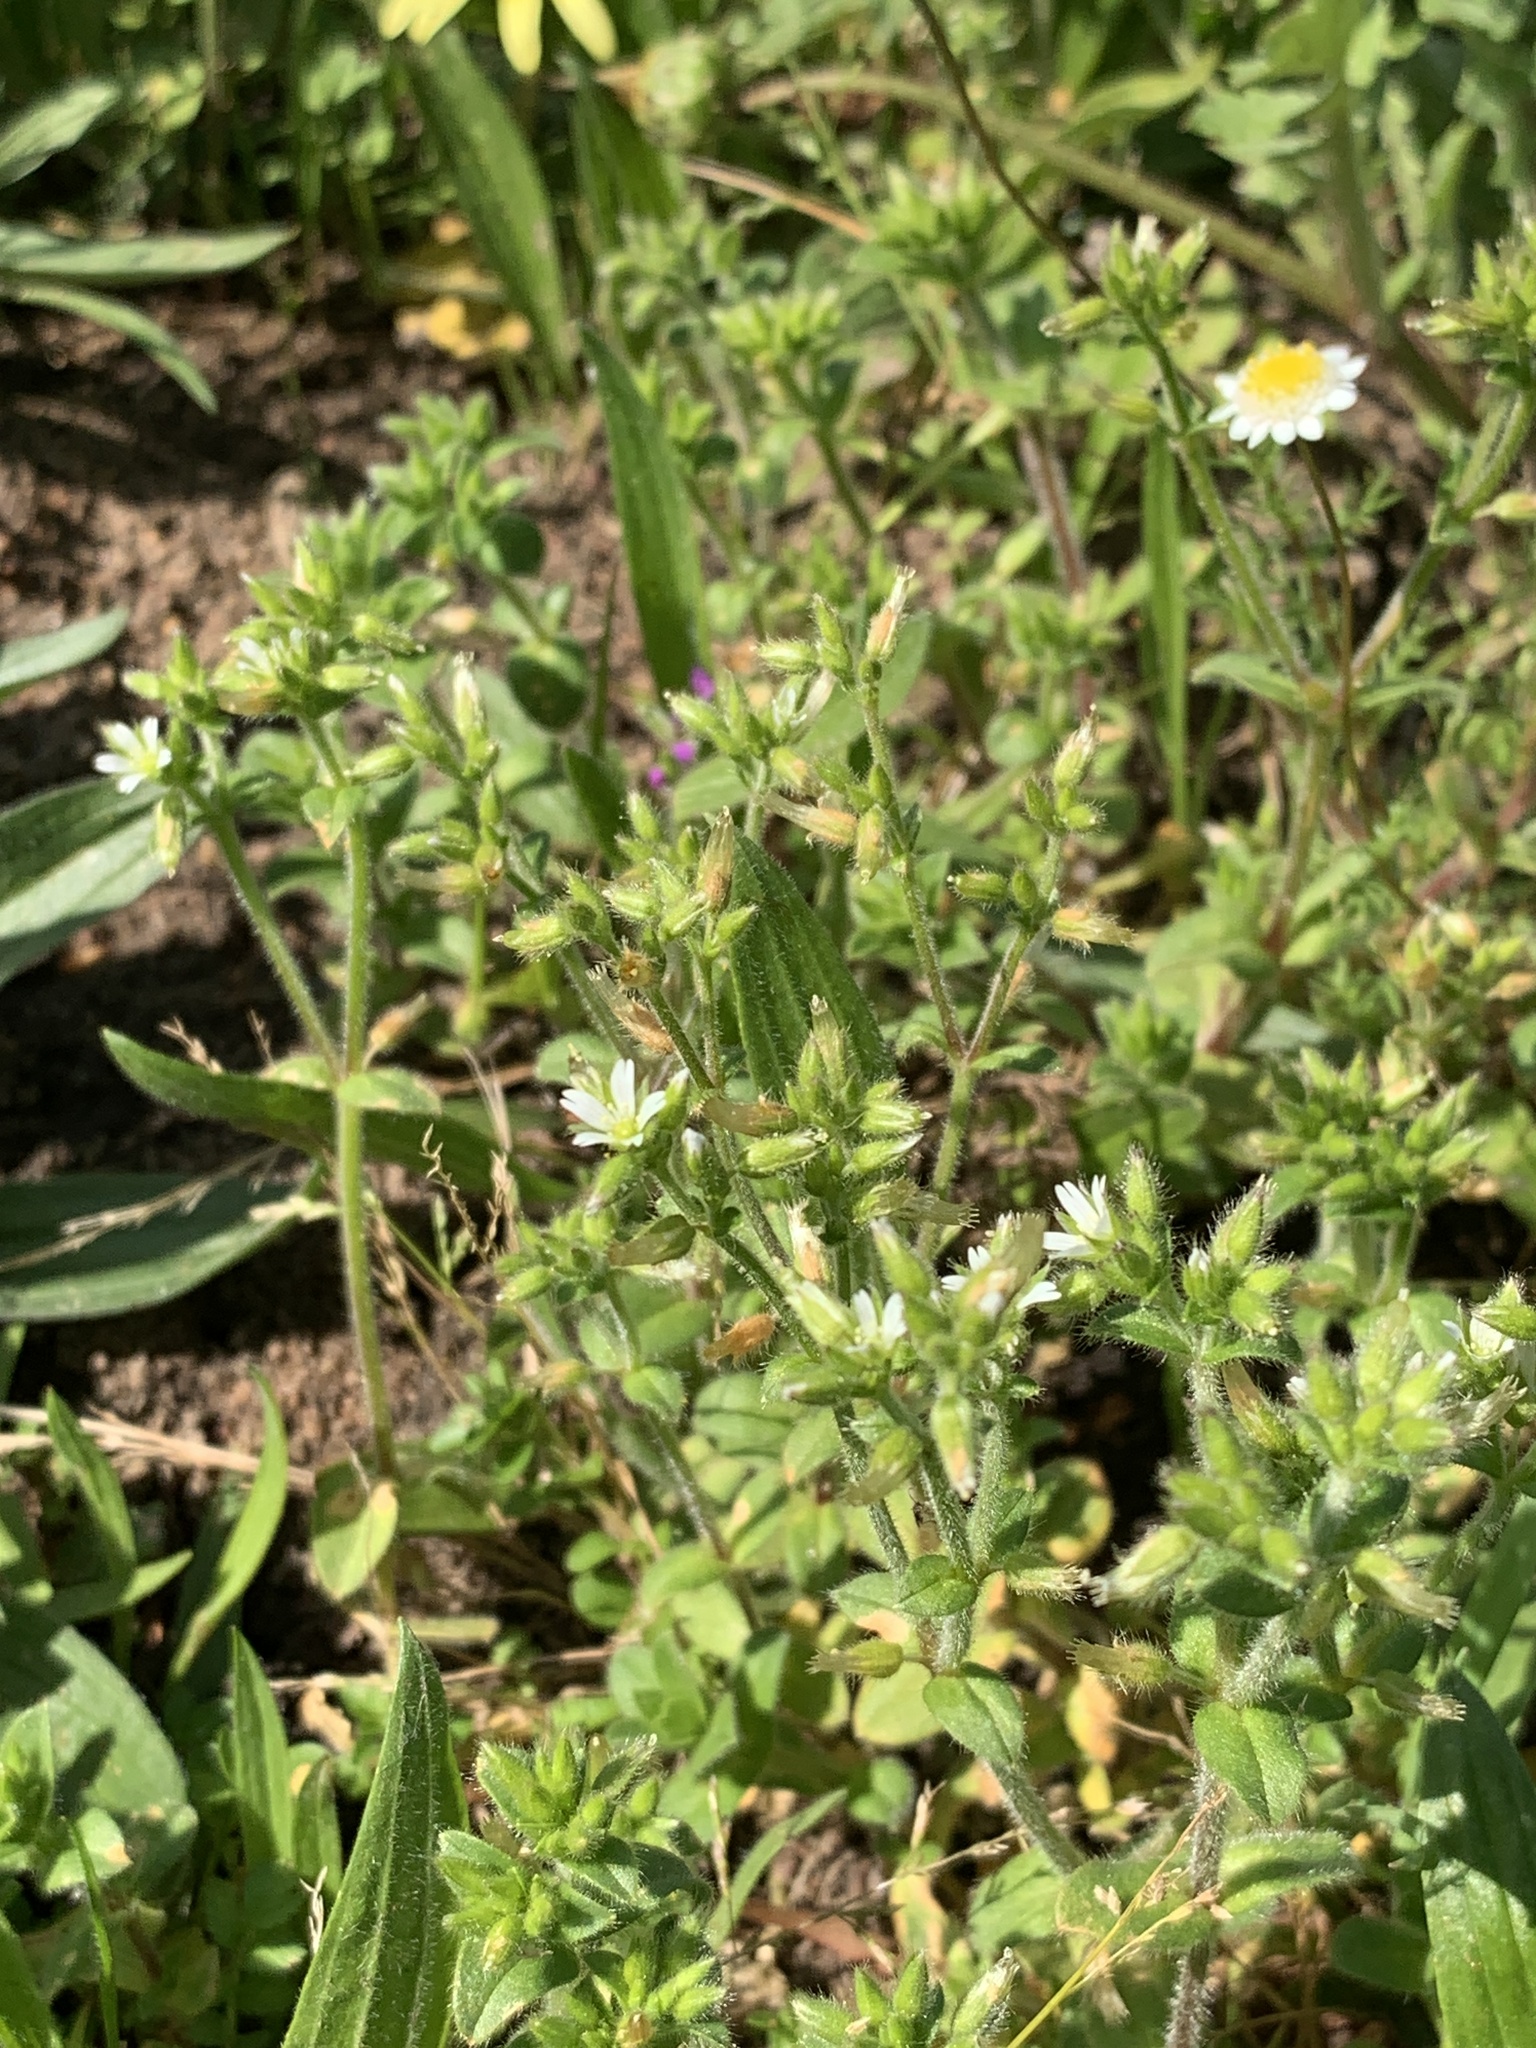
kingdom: Plantae
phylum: Tracheophyta
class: Magnoliopsida
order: Caryophyllales
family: Caryophyllaceae
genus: Cerastium
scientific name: Cerastium glomeratum
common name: Sticky chickweed
